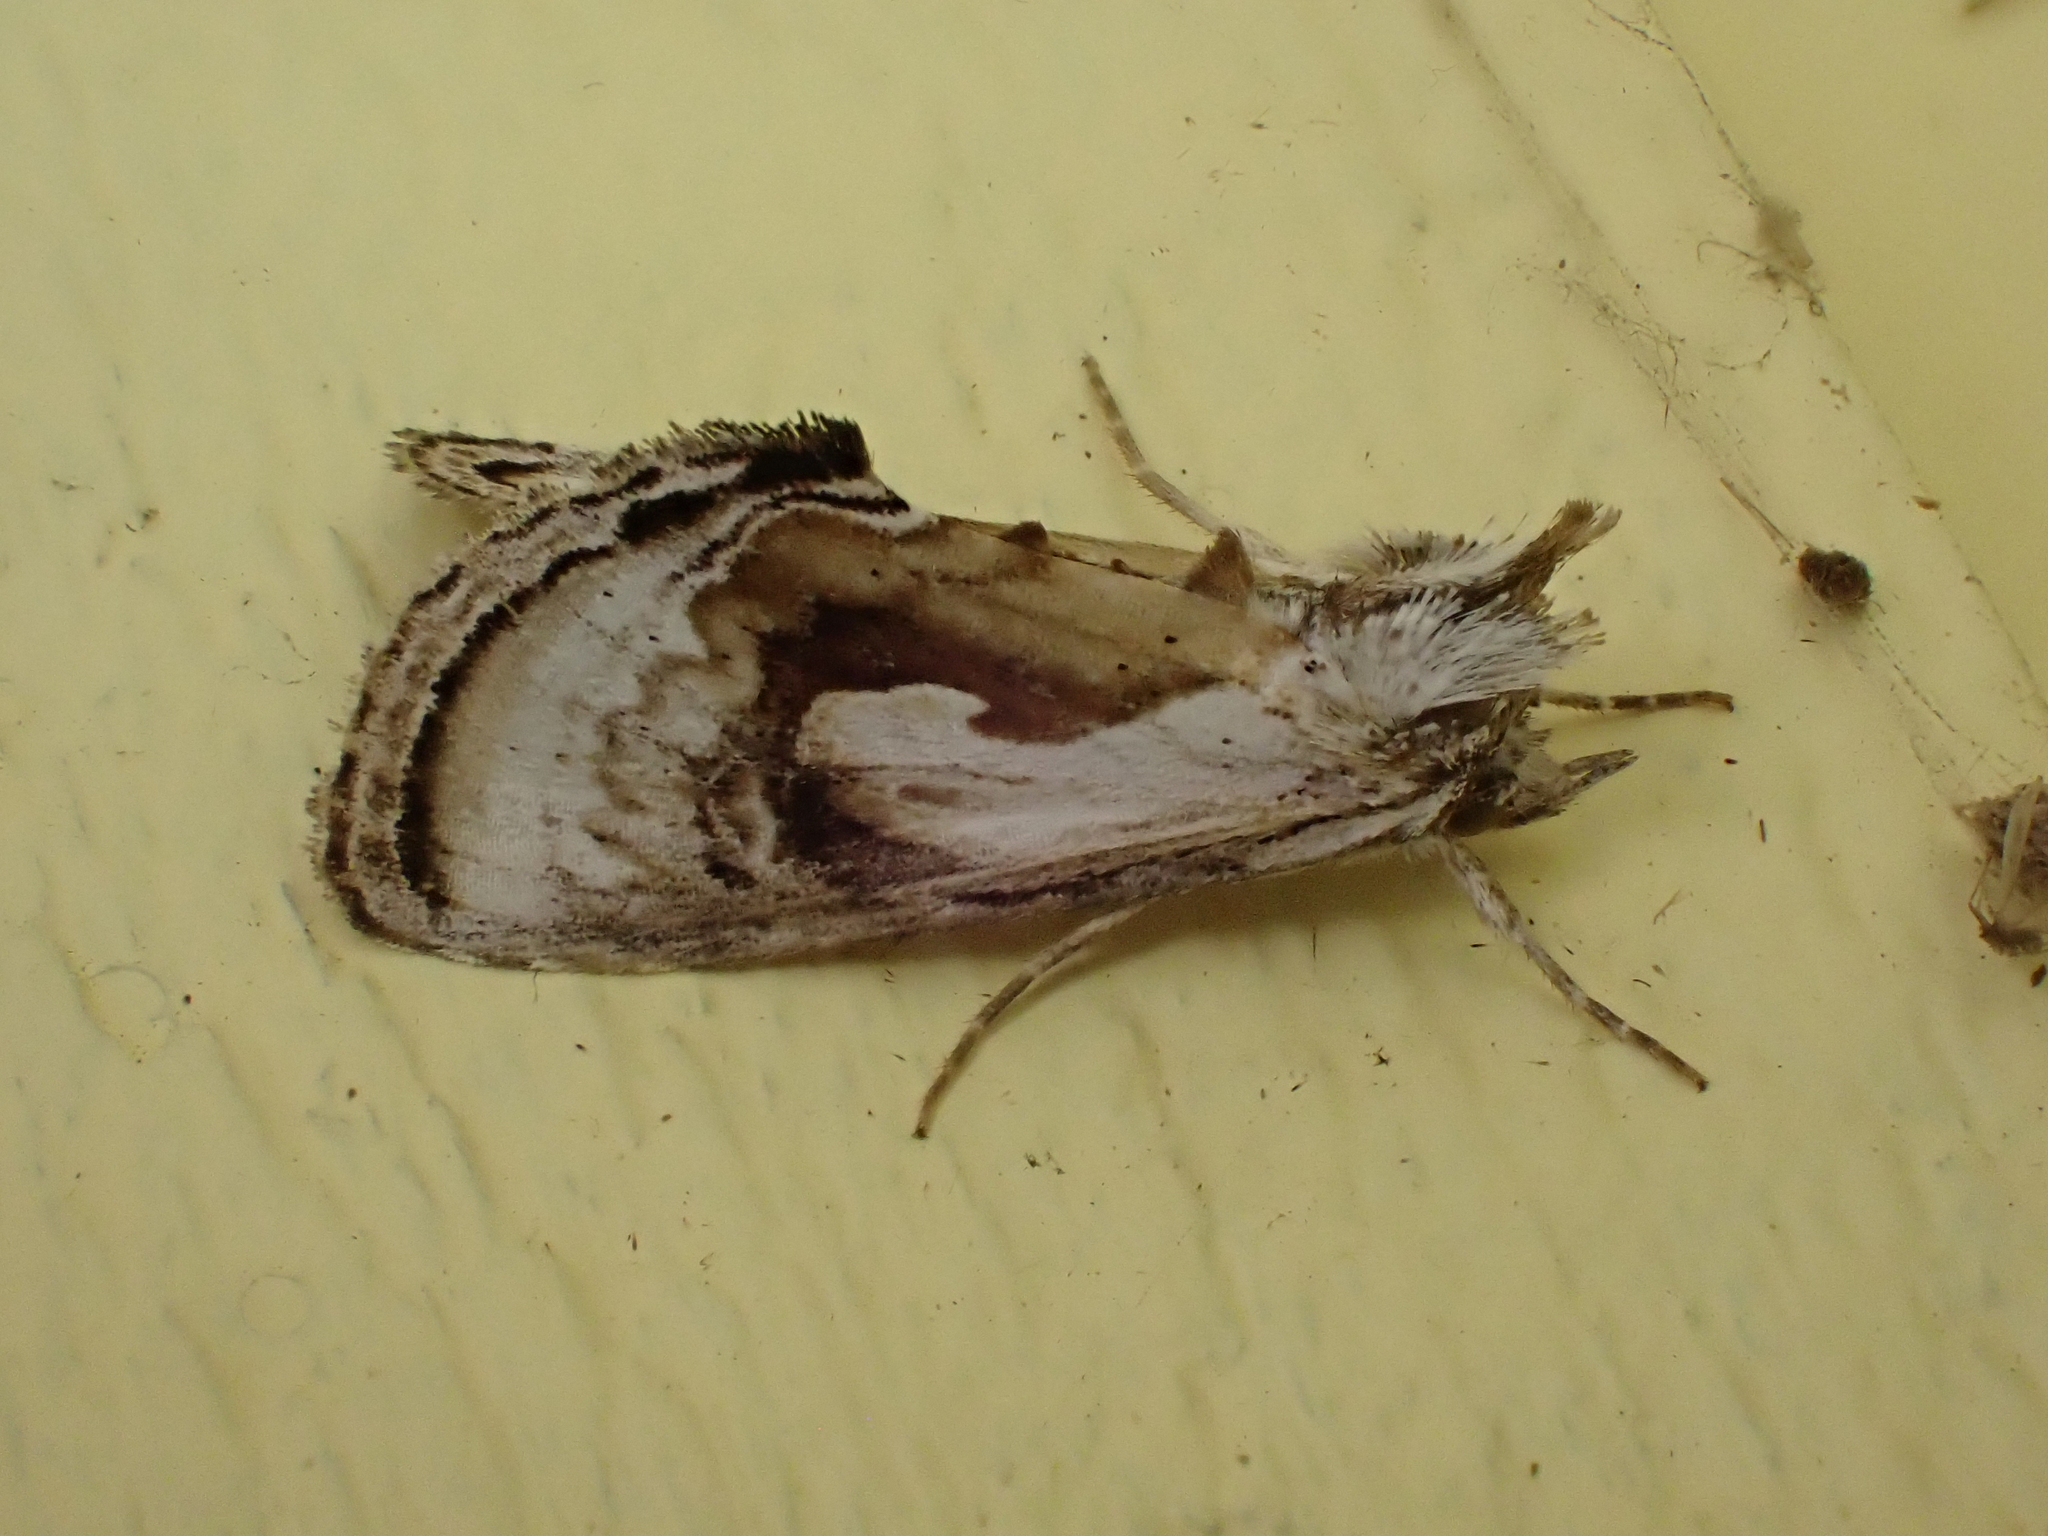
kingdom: Animalia
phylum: Arthropoda
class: Insecta
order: Lepidoptera
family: Noctuidae
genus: Chrysanympha
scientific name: Chrysanympha formosa
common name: Formosa looper moth
